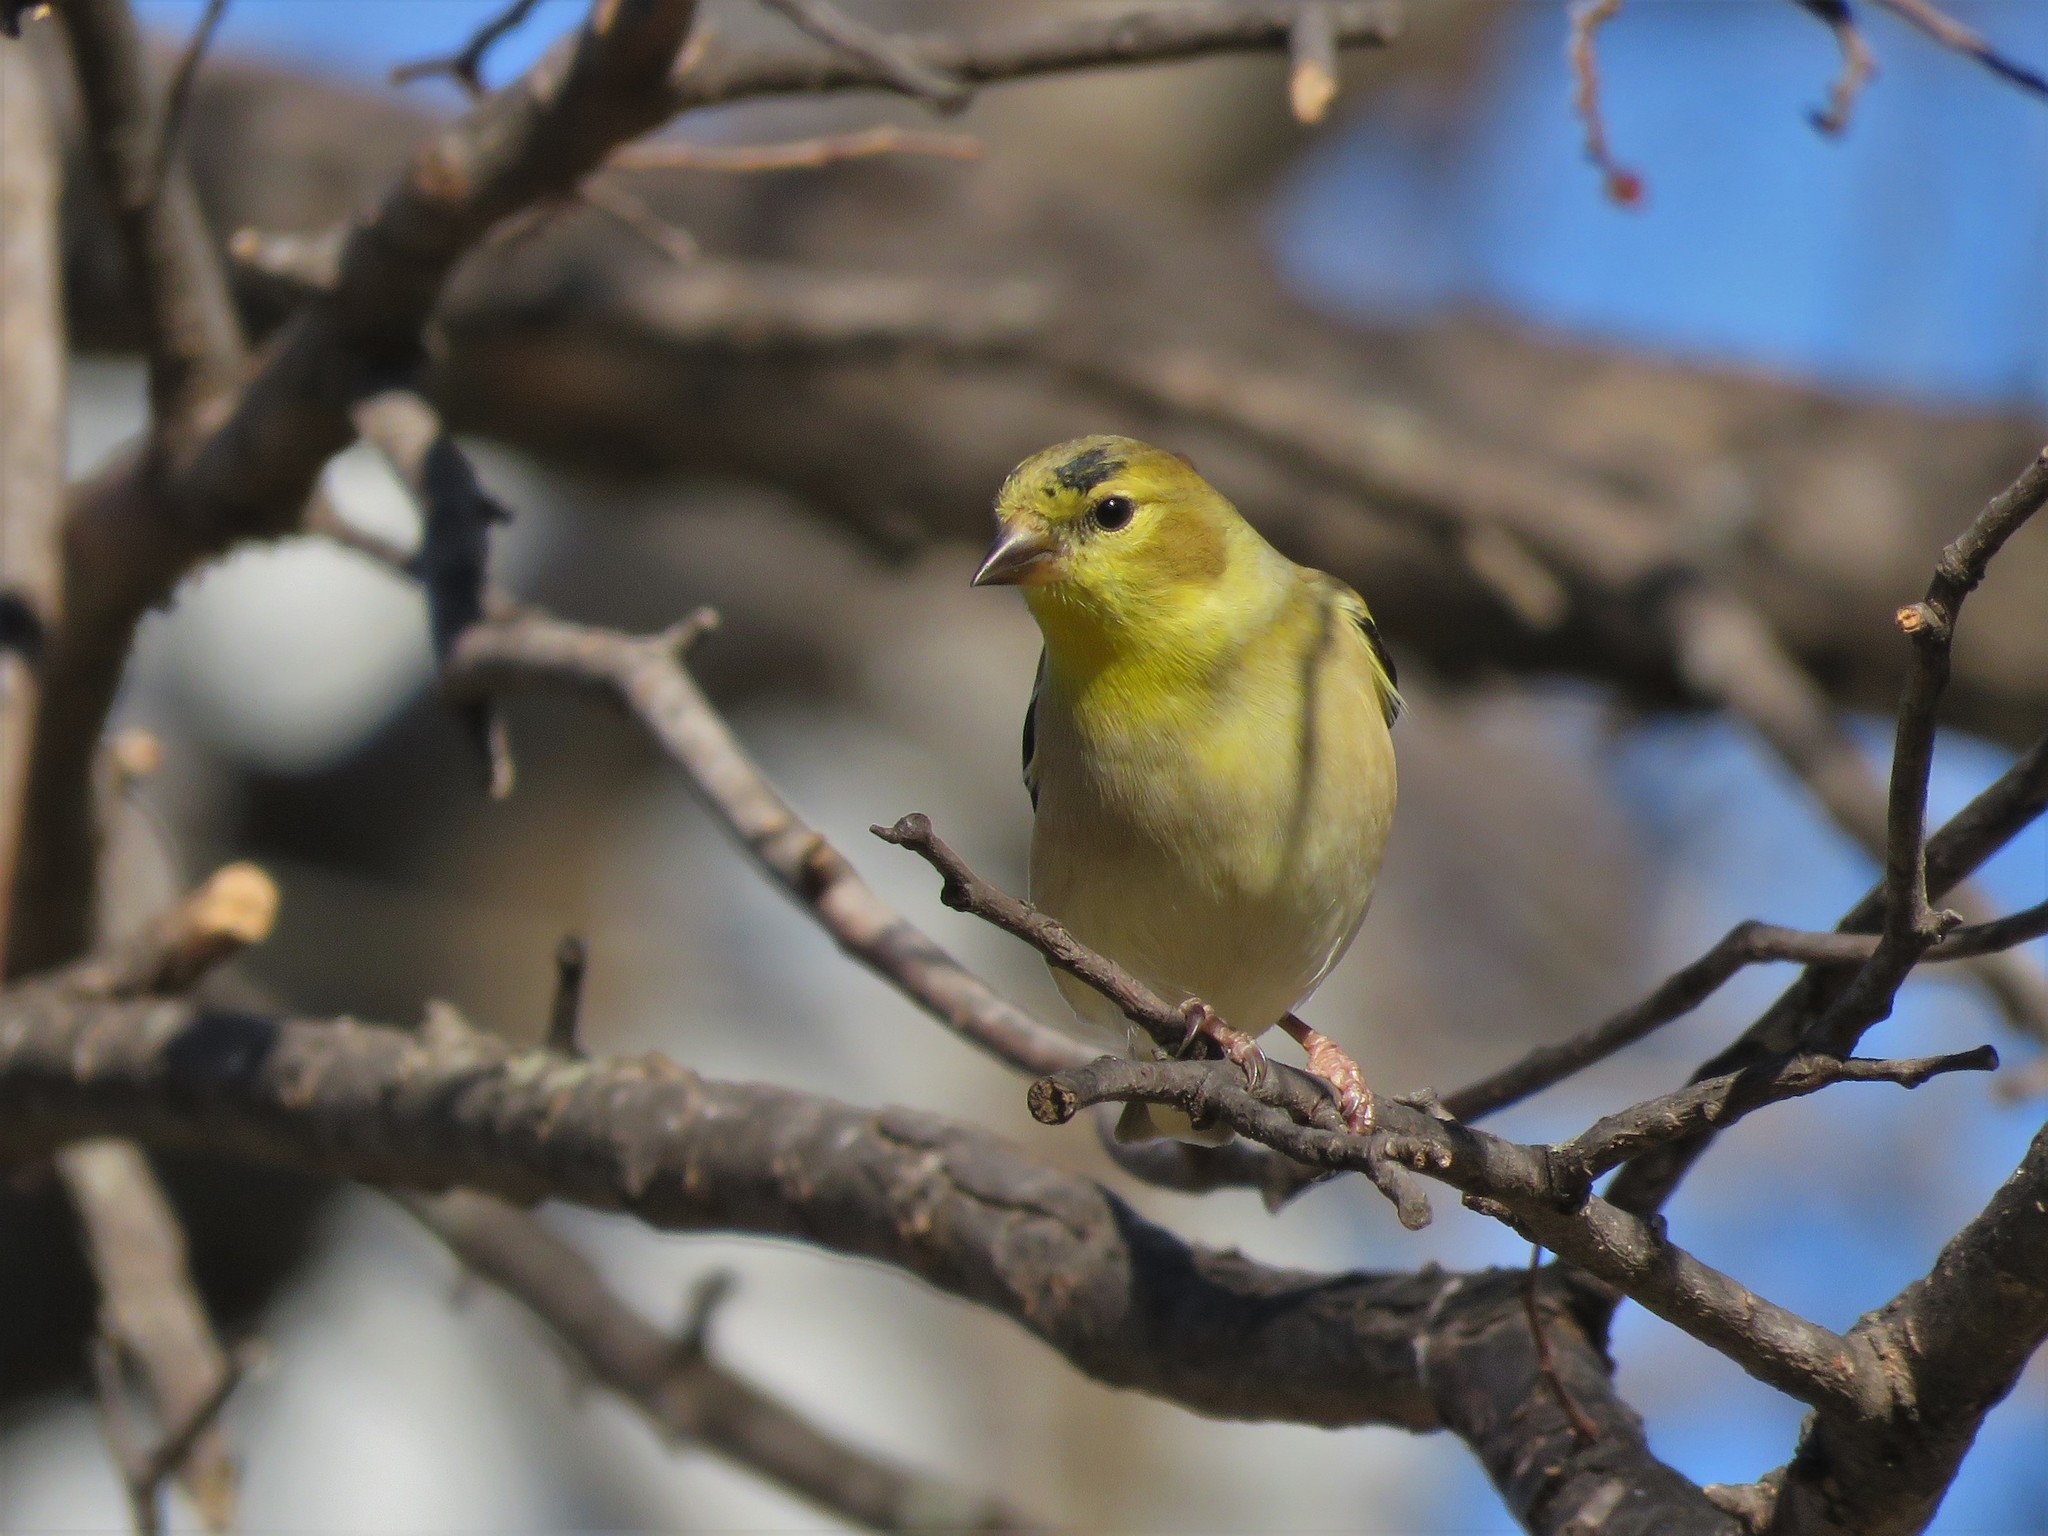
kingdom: Animalia
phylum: Chordata
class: Aves
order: Passeriformes
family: Fringillidae
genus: Spinus
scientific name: Spinus tristis
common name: American goldfinch
